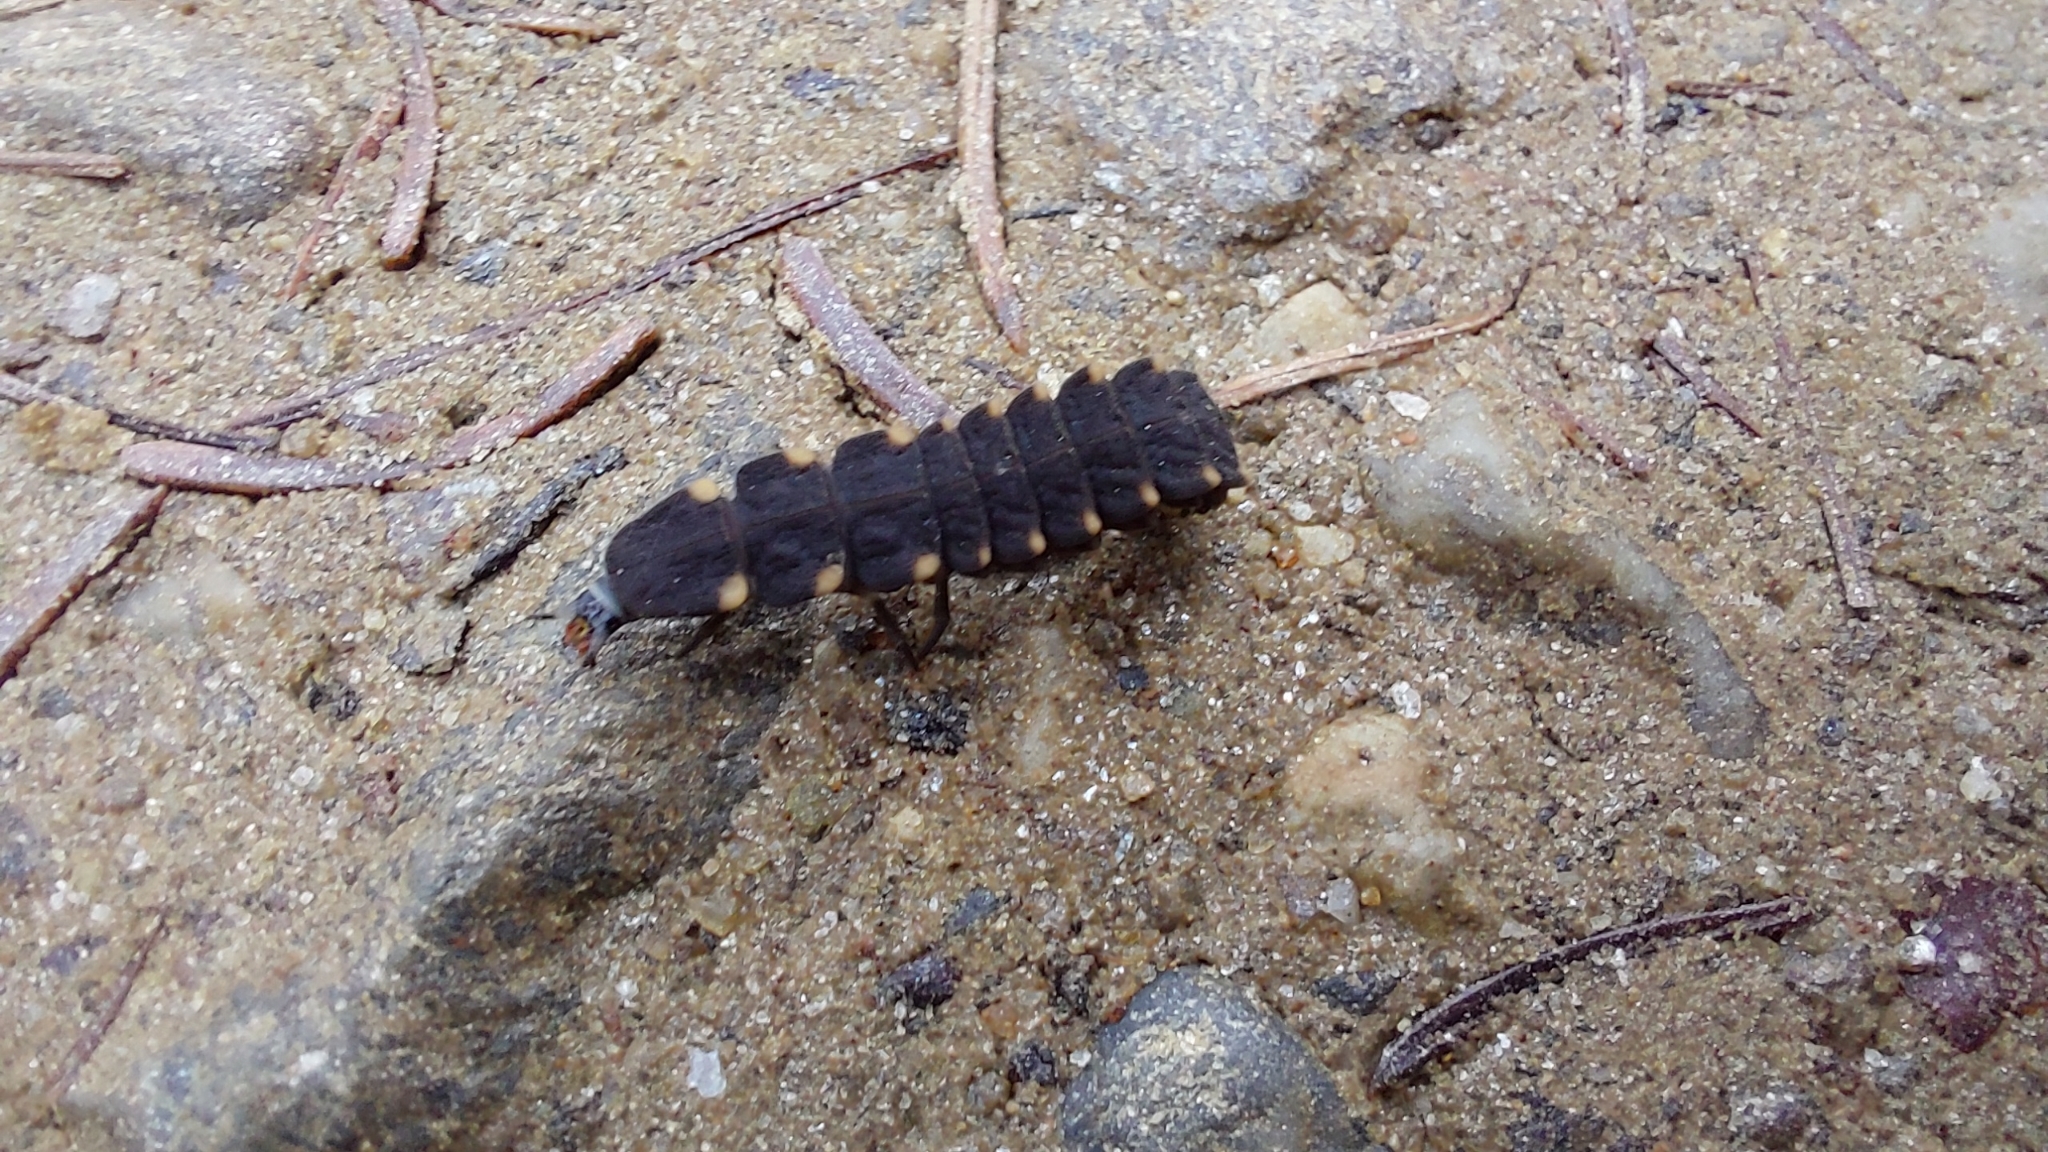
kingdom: Animalia
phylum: Arthropoda
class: Insecta
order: Coleoptera
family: Lampyridae
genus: Lampyris
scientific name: Lampyris noctiluca
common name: Glow-worm
